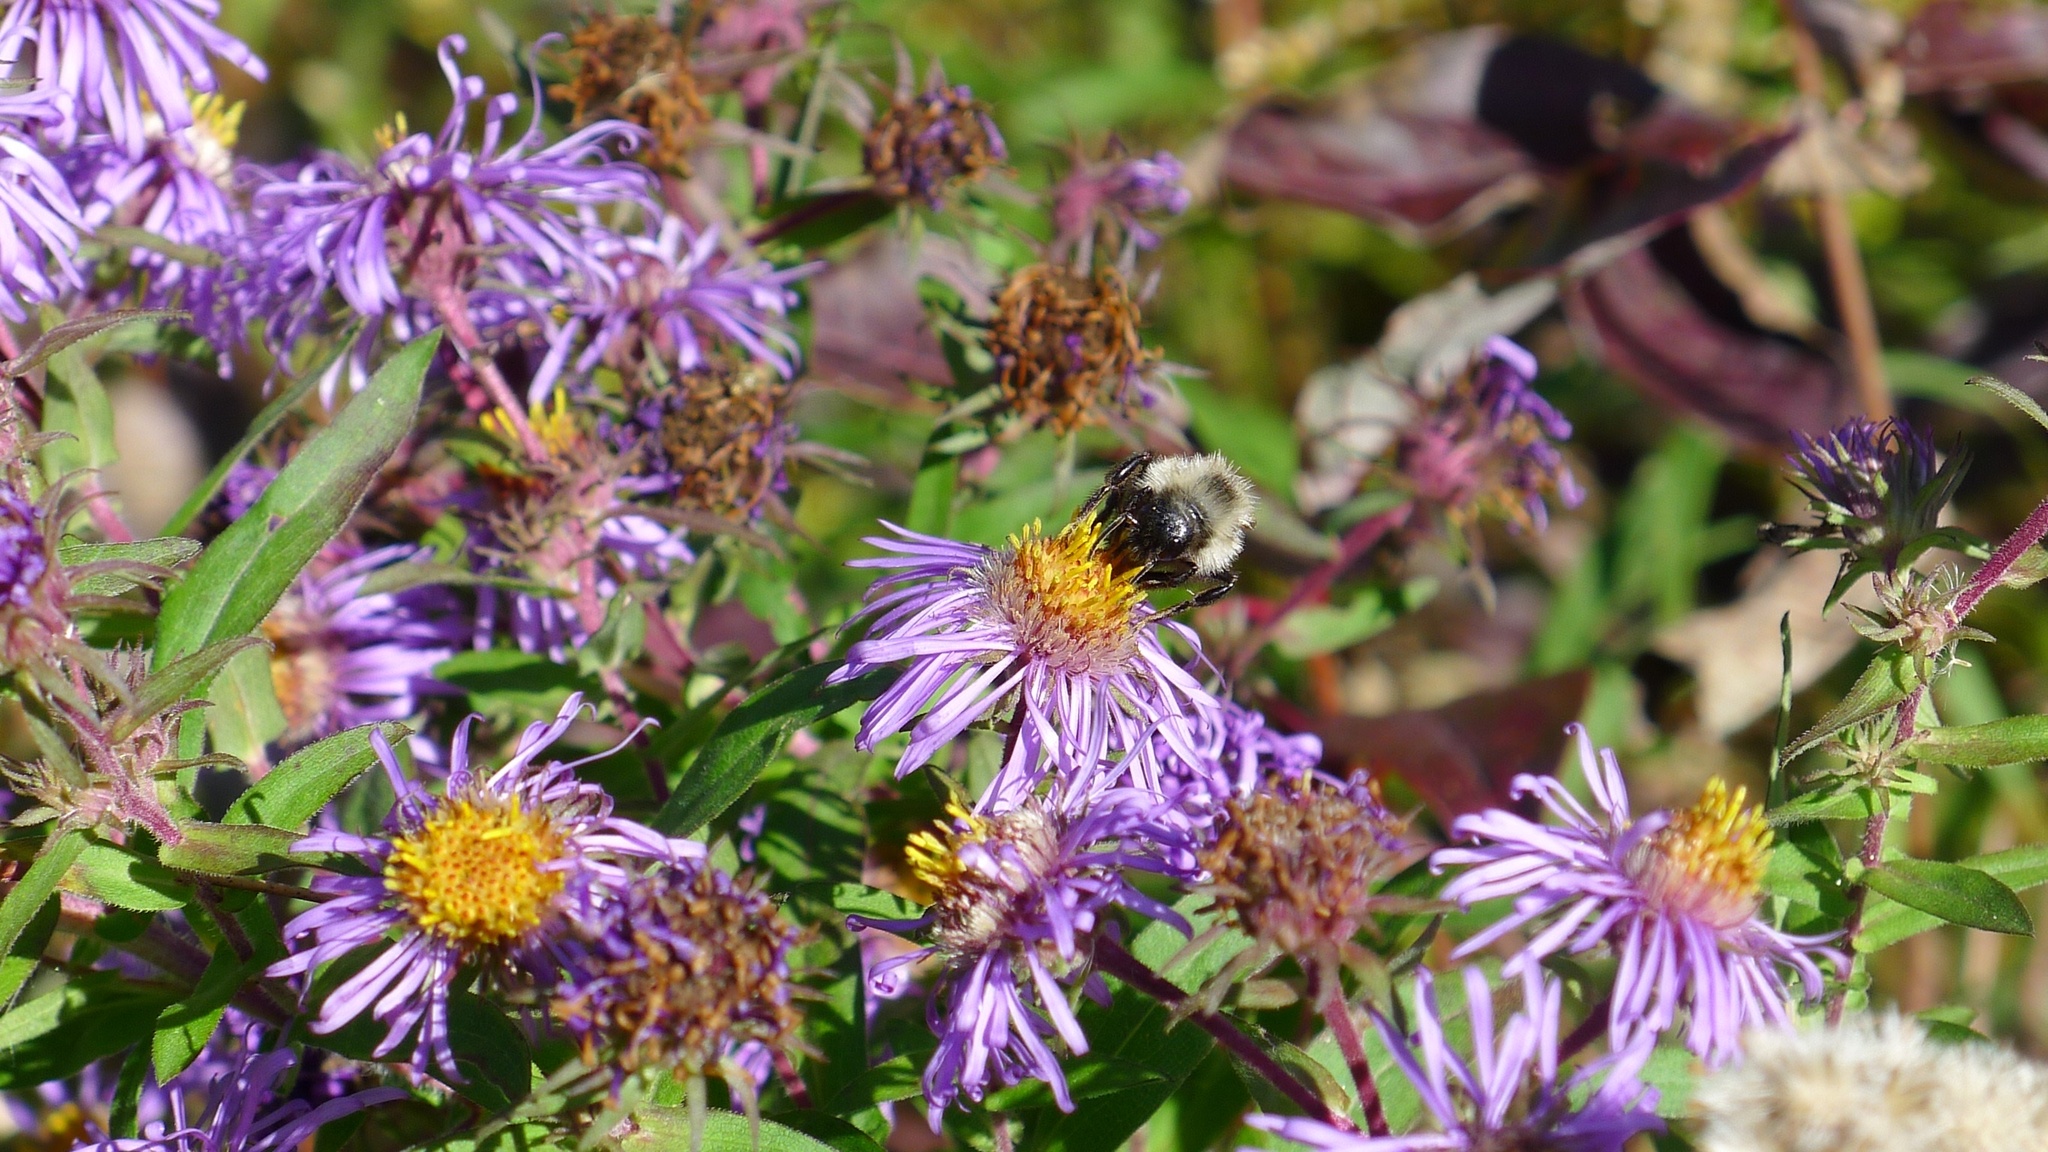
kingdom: Animalia
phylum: Arthropoda
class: Insecta
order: Hymenoptera
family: Apidae
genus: Bombus
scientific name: Bombus citrinus
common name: Lemon cuckoo bumble bee
